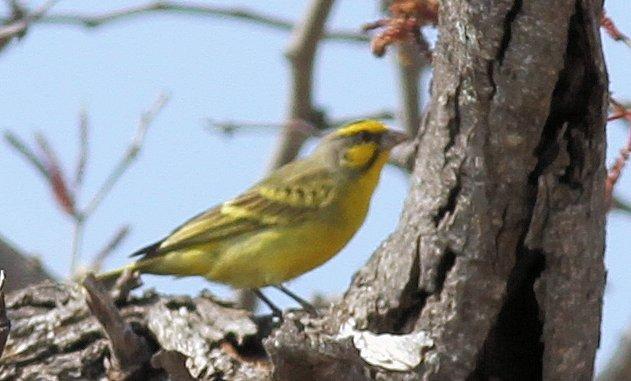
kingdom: Animalia
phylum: Chordata
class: Aves
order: Passeriformes
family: Fringillidae
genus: Crithagra
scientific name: Crithagra mozambica
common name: Yellow-fronted canary
